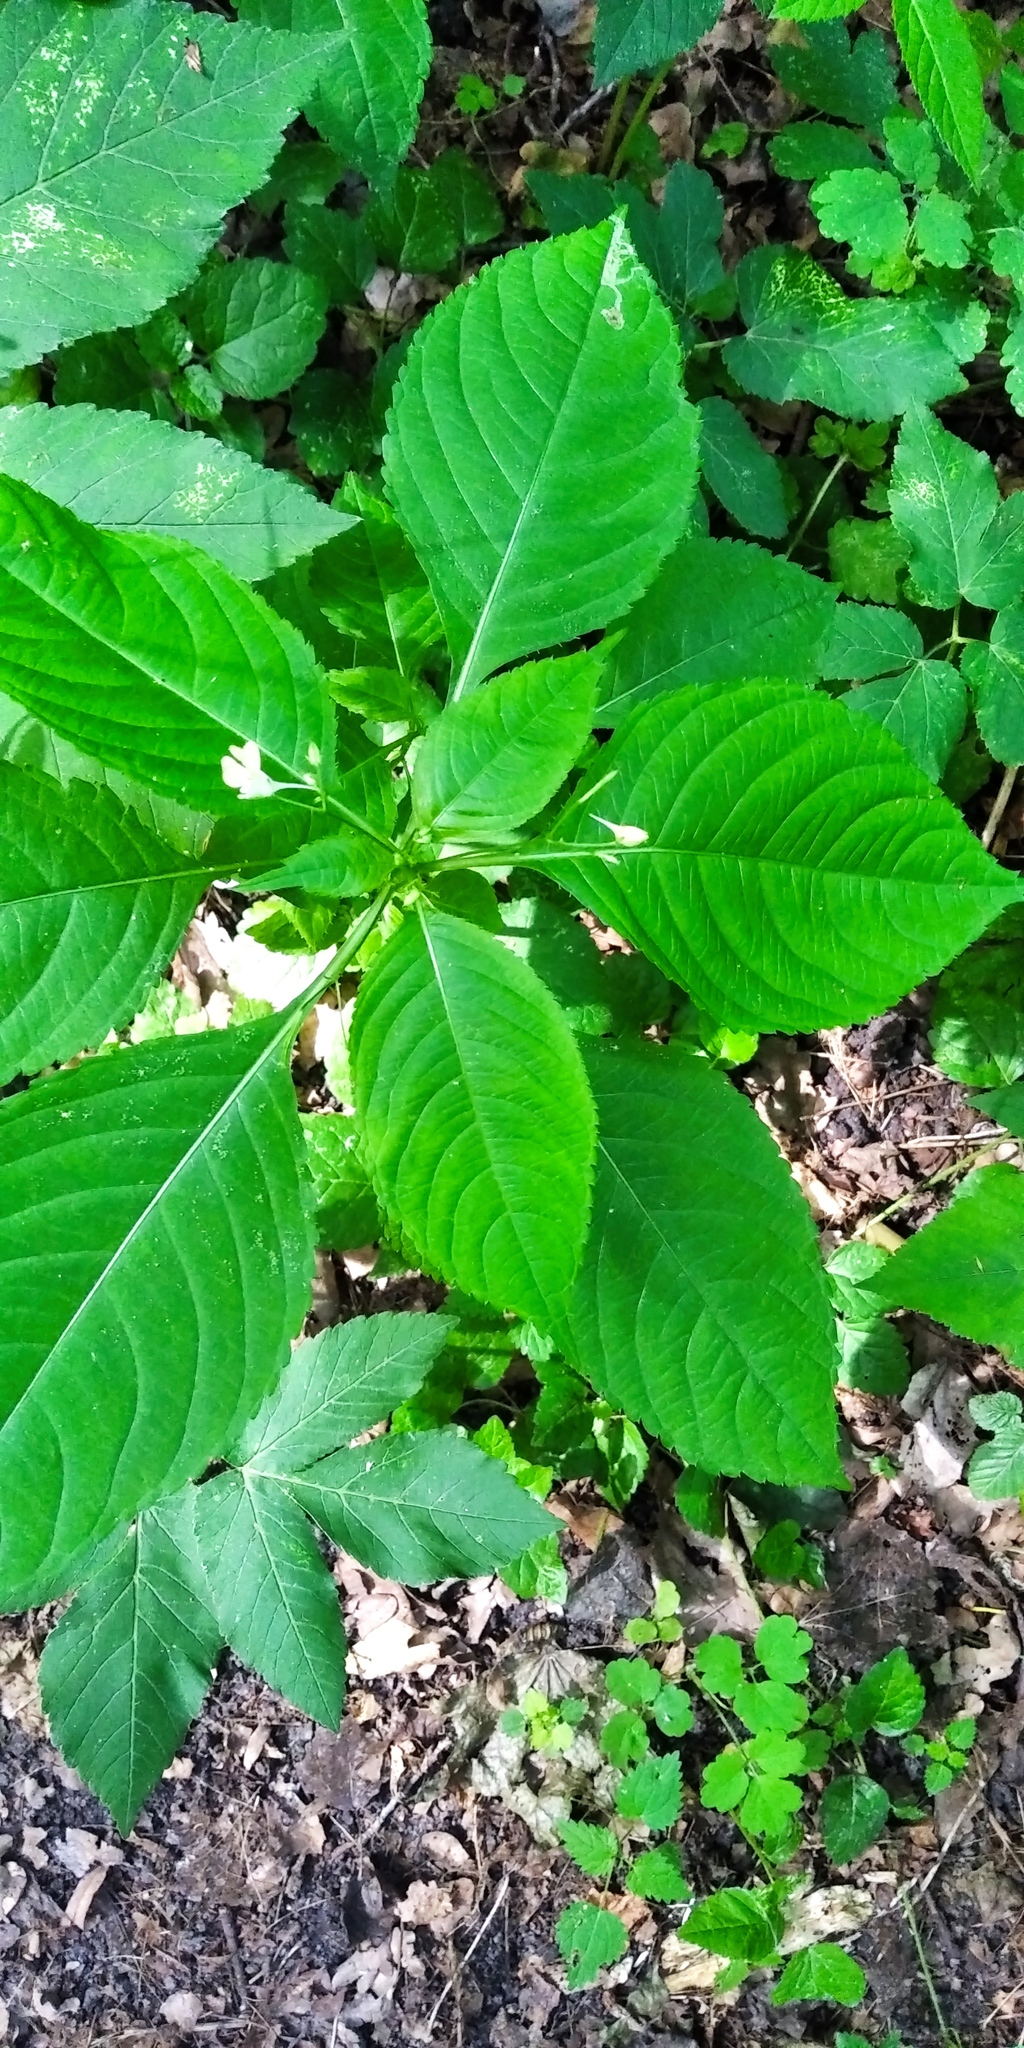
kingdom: Plantae
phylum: Tracheophyta
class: Magnoliopsida
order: Ericales
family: Balsaminaceae
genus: Impatiens
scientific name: Impatiens parviflora
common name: Small balsam
